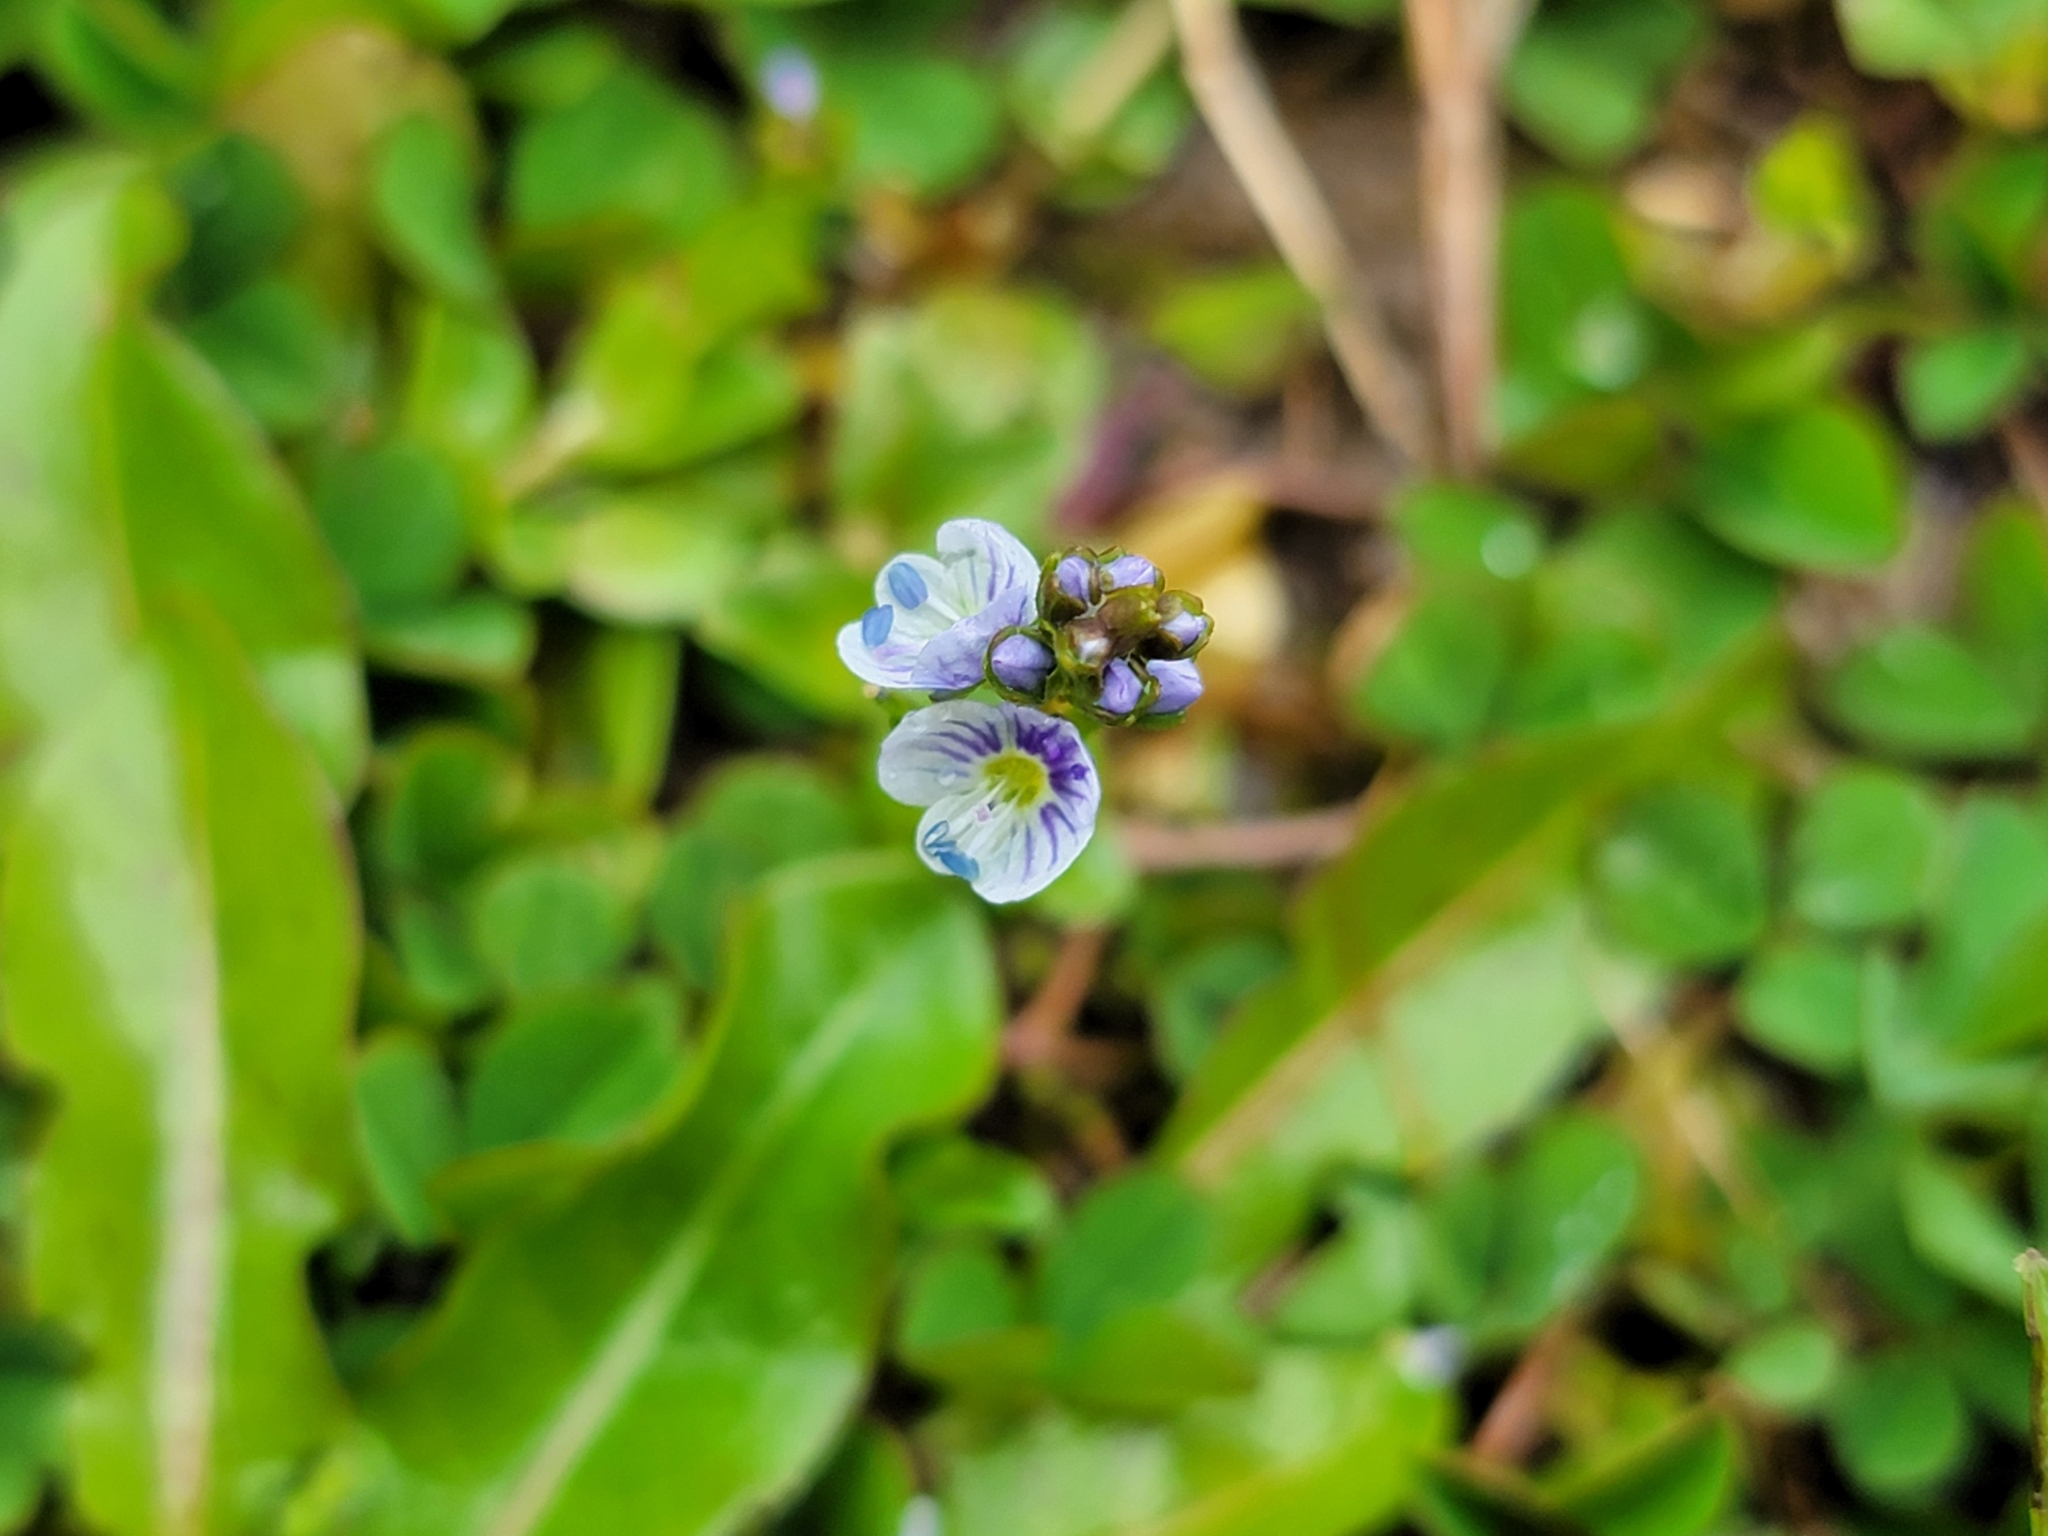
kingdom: Plantae
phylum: Tracheophyta
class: Magnoliopsida
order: Lamiales
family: Plantaginaceae
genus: Veronica
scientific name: Veronica serpyllifolia
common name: Thyme-leaved speedwell
